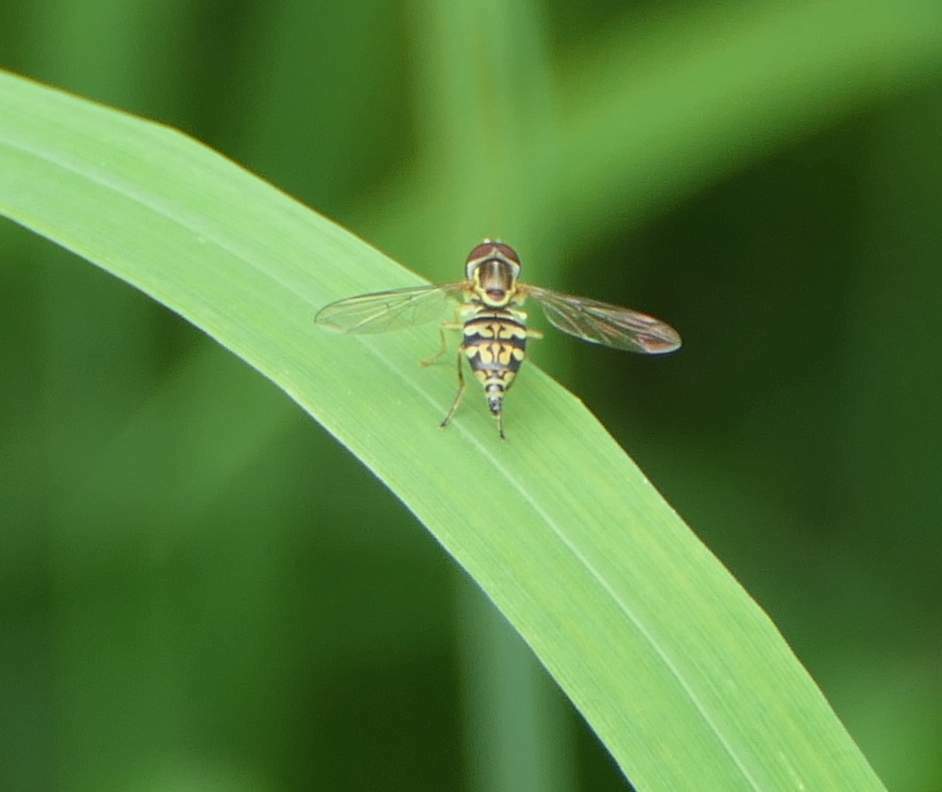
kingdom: Animalia
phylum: Arthropoda
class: Insecta
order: Diptera
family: Syrphidae
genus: Toxomerus
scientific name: Toxomerus geminatus
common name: Eastern calligrapher
